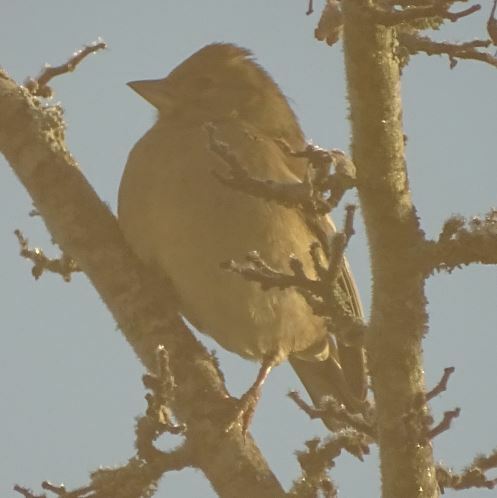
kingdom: Animalia
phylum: Chordata
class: Aves
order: Passeriformes
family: Fringillidae
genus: Fringilla
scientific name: Fringilla coelebs
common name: Common chaffinch
